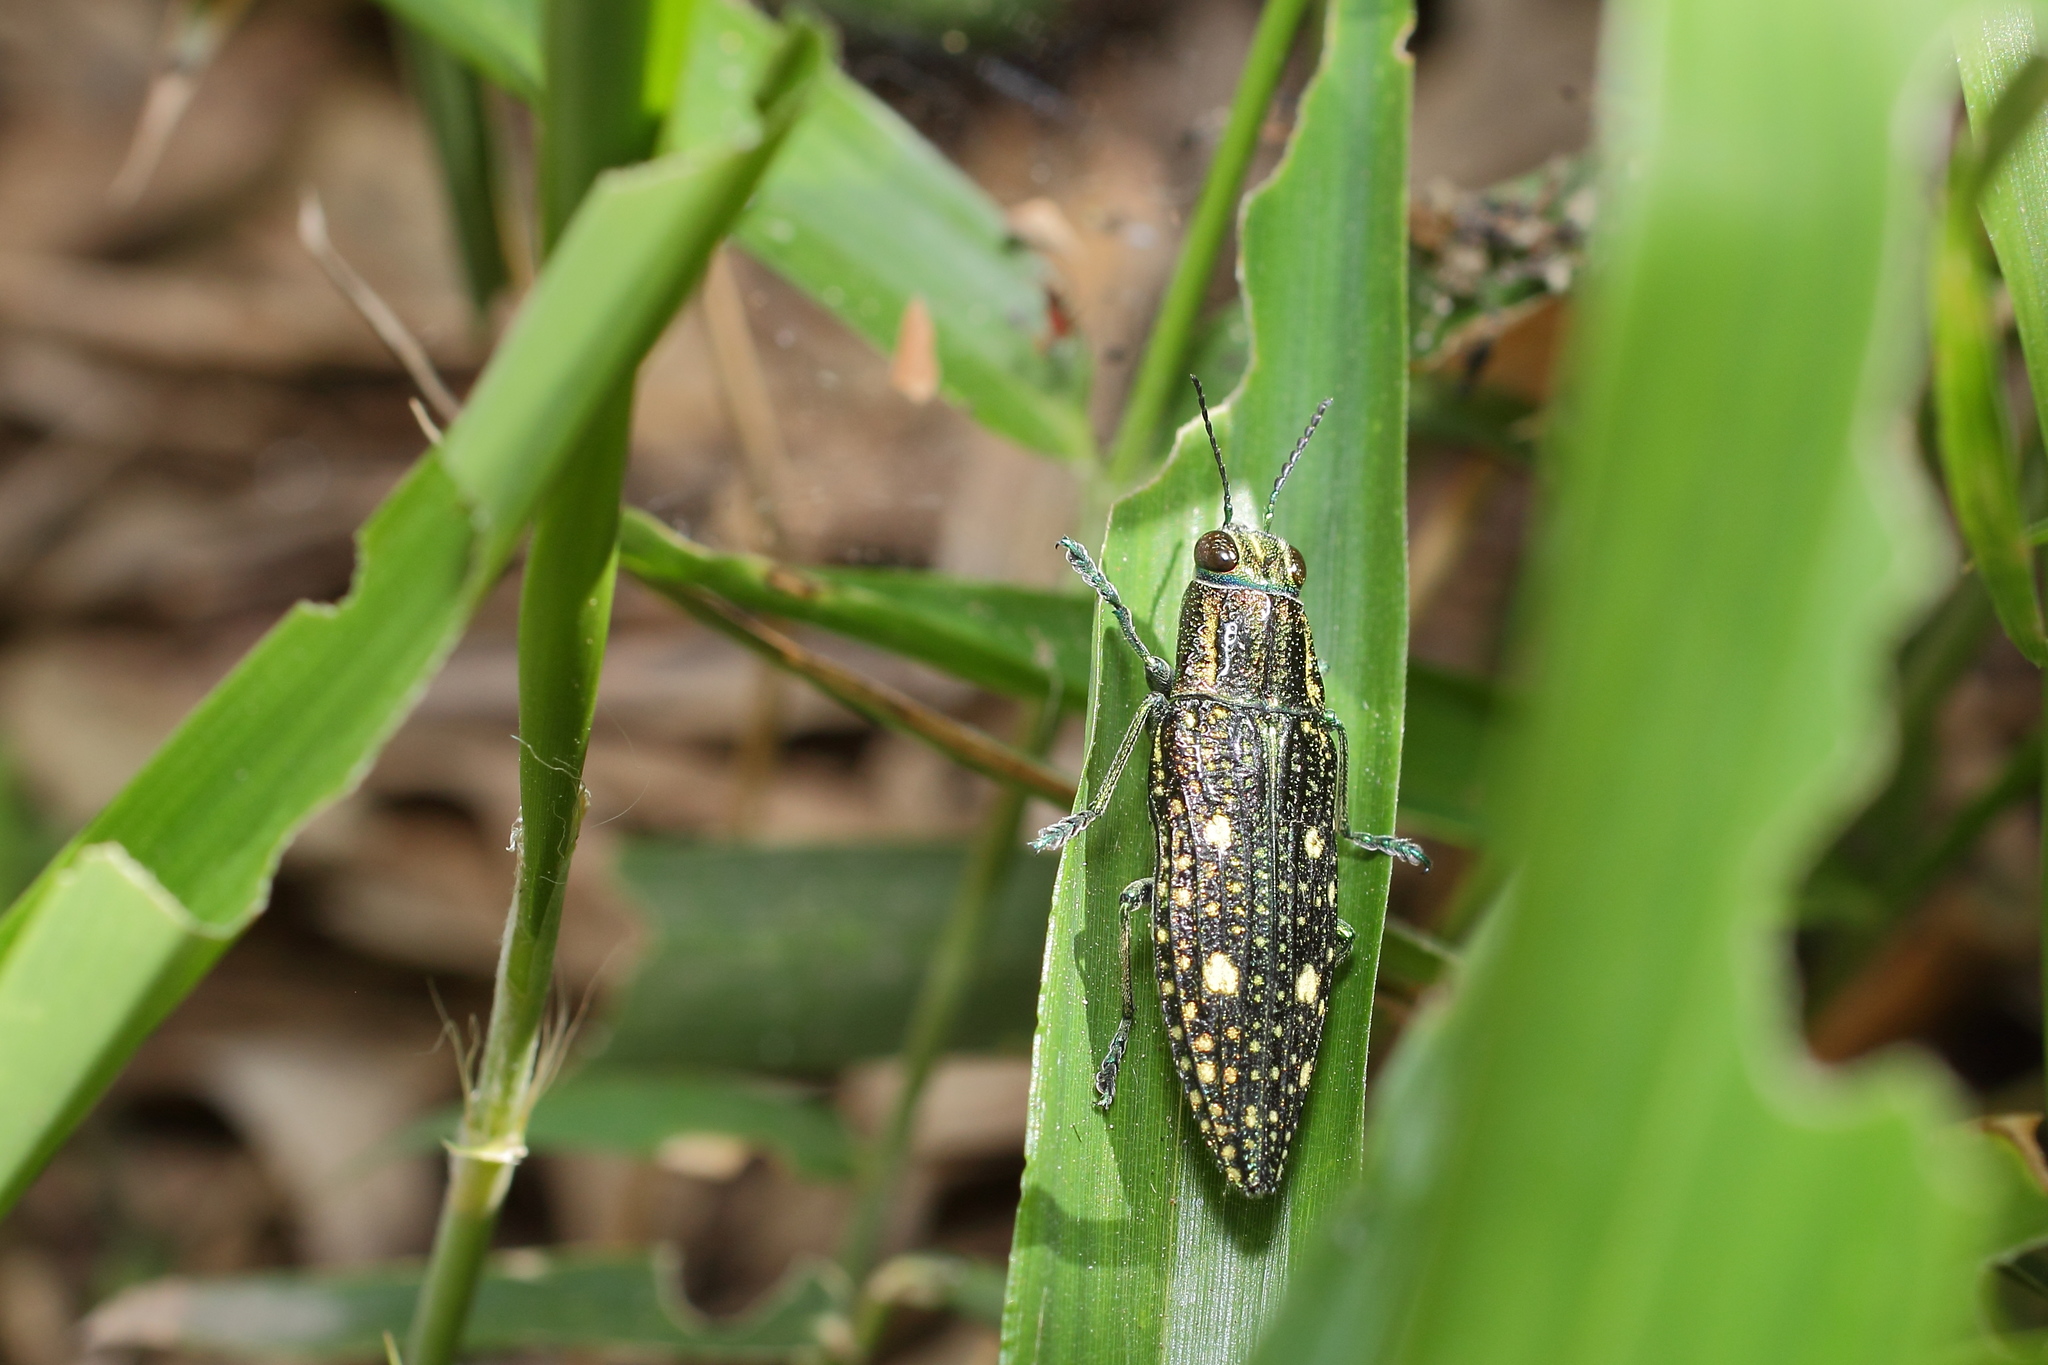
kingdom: Animalia
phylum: Arthropoda
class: Insecta
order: Coleoptera
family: Buprestidae
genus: Nipponobuprestis
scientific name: Nipponobuprestis amabilis
